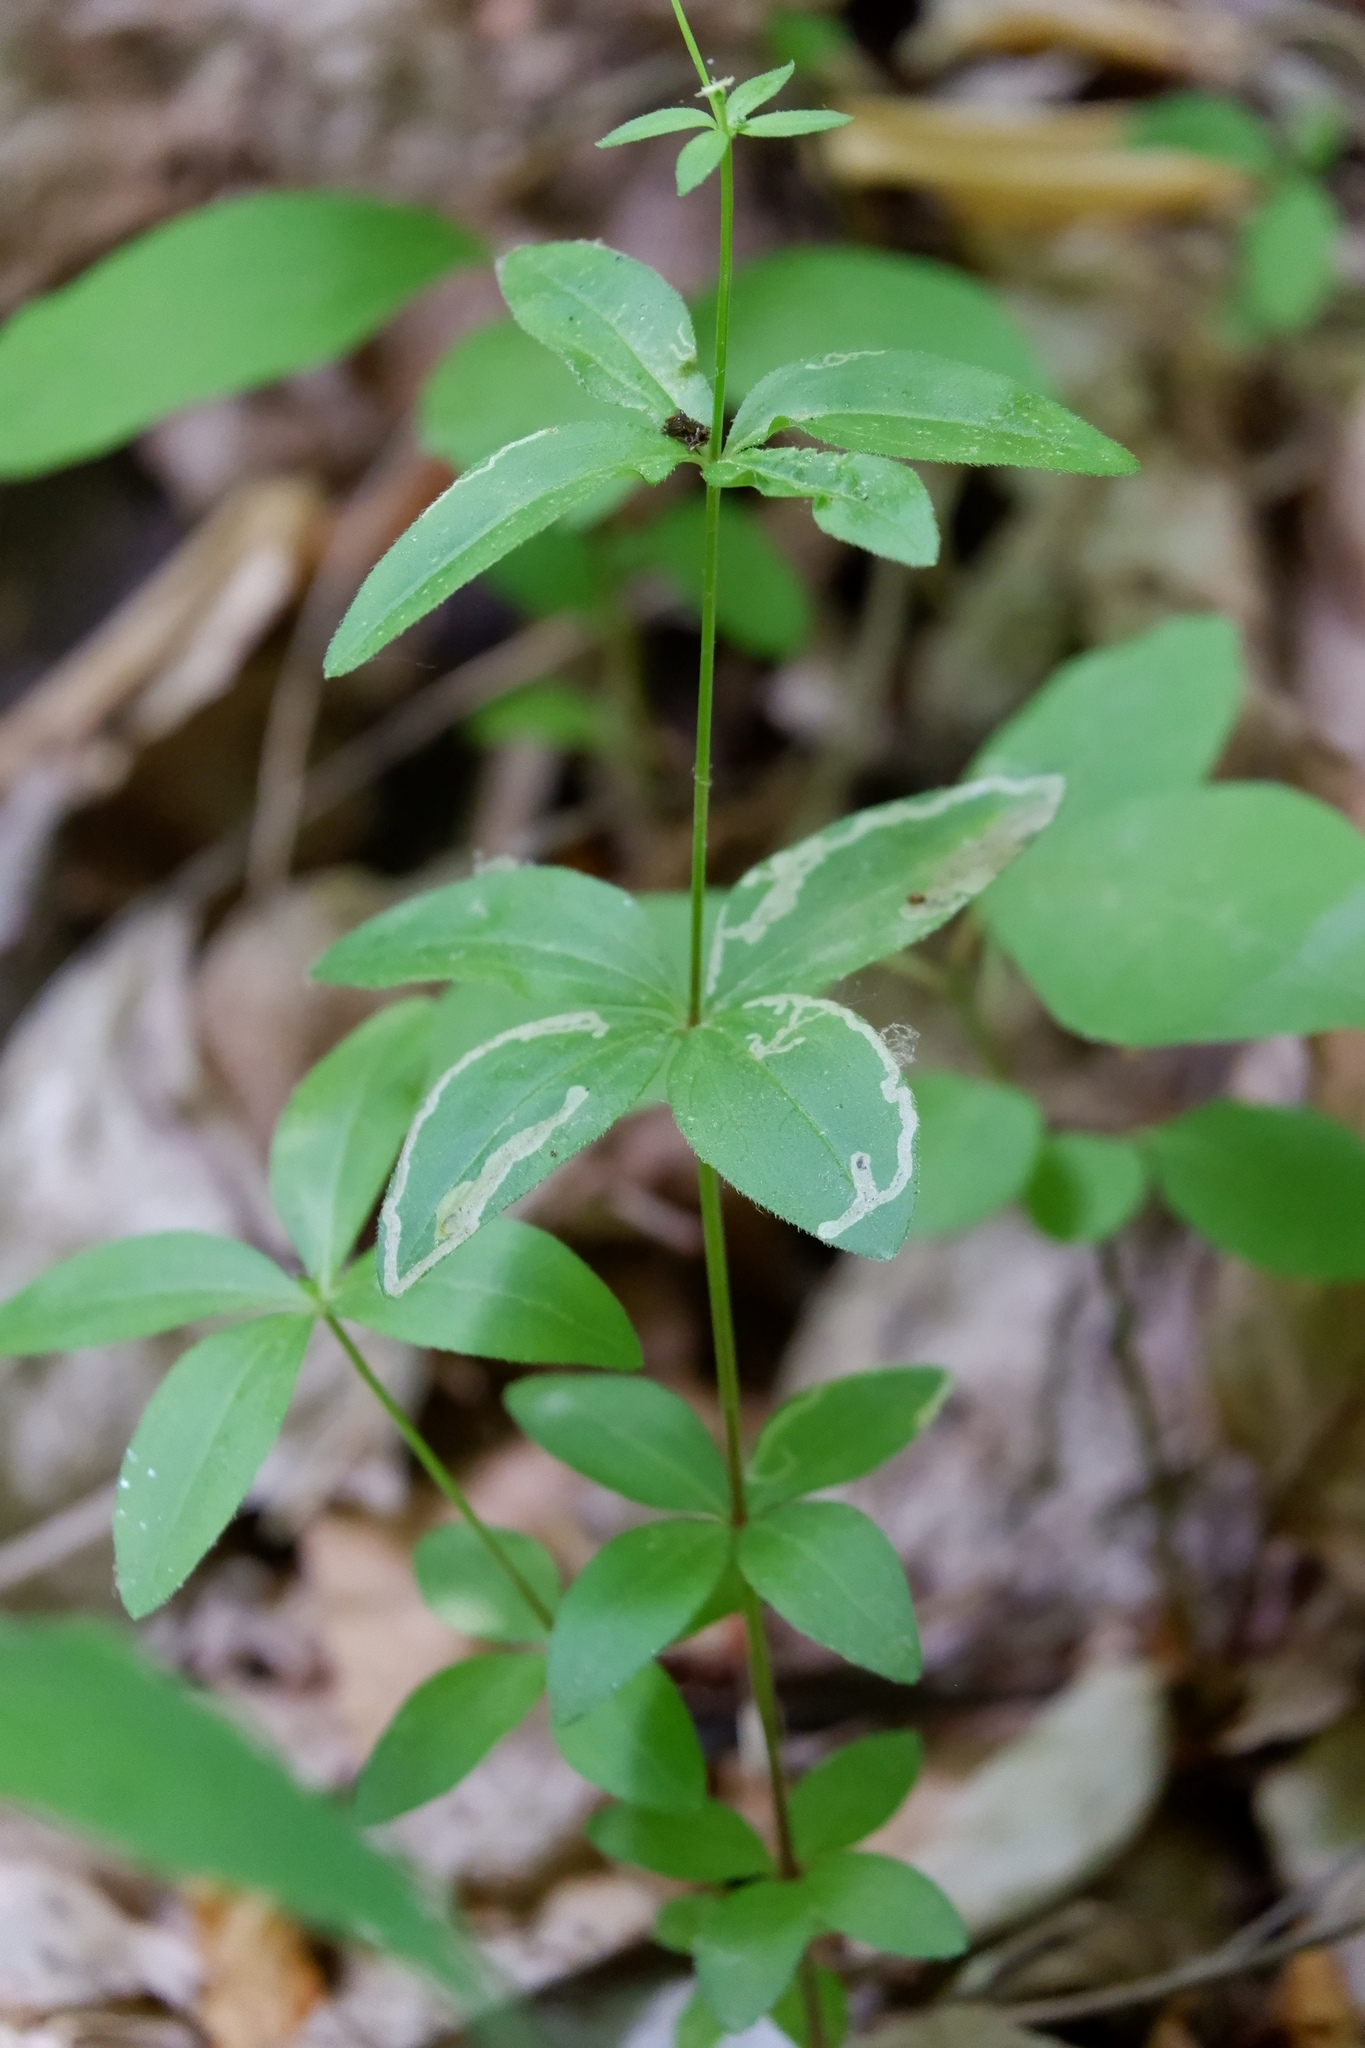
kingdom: Animalia
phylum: Arthropoda
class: Insecta
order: Diptera
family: Agromyzidae
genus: Liriomyza
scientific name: Liriomyza galiivora
